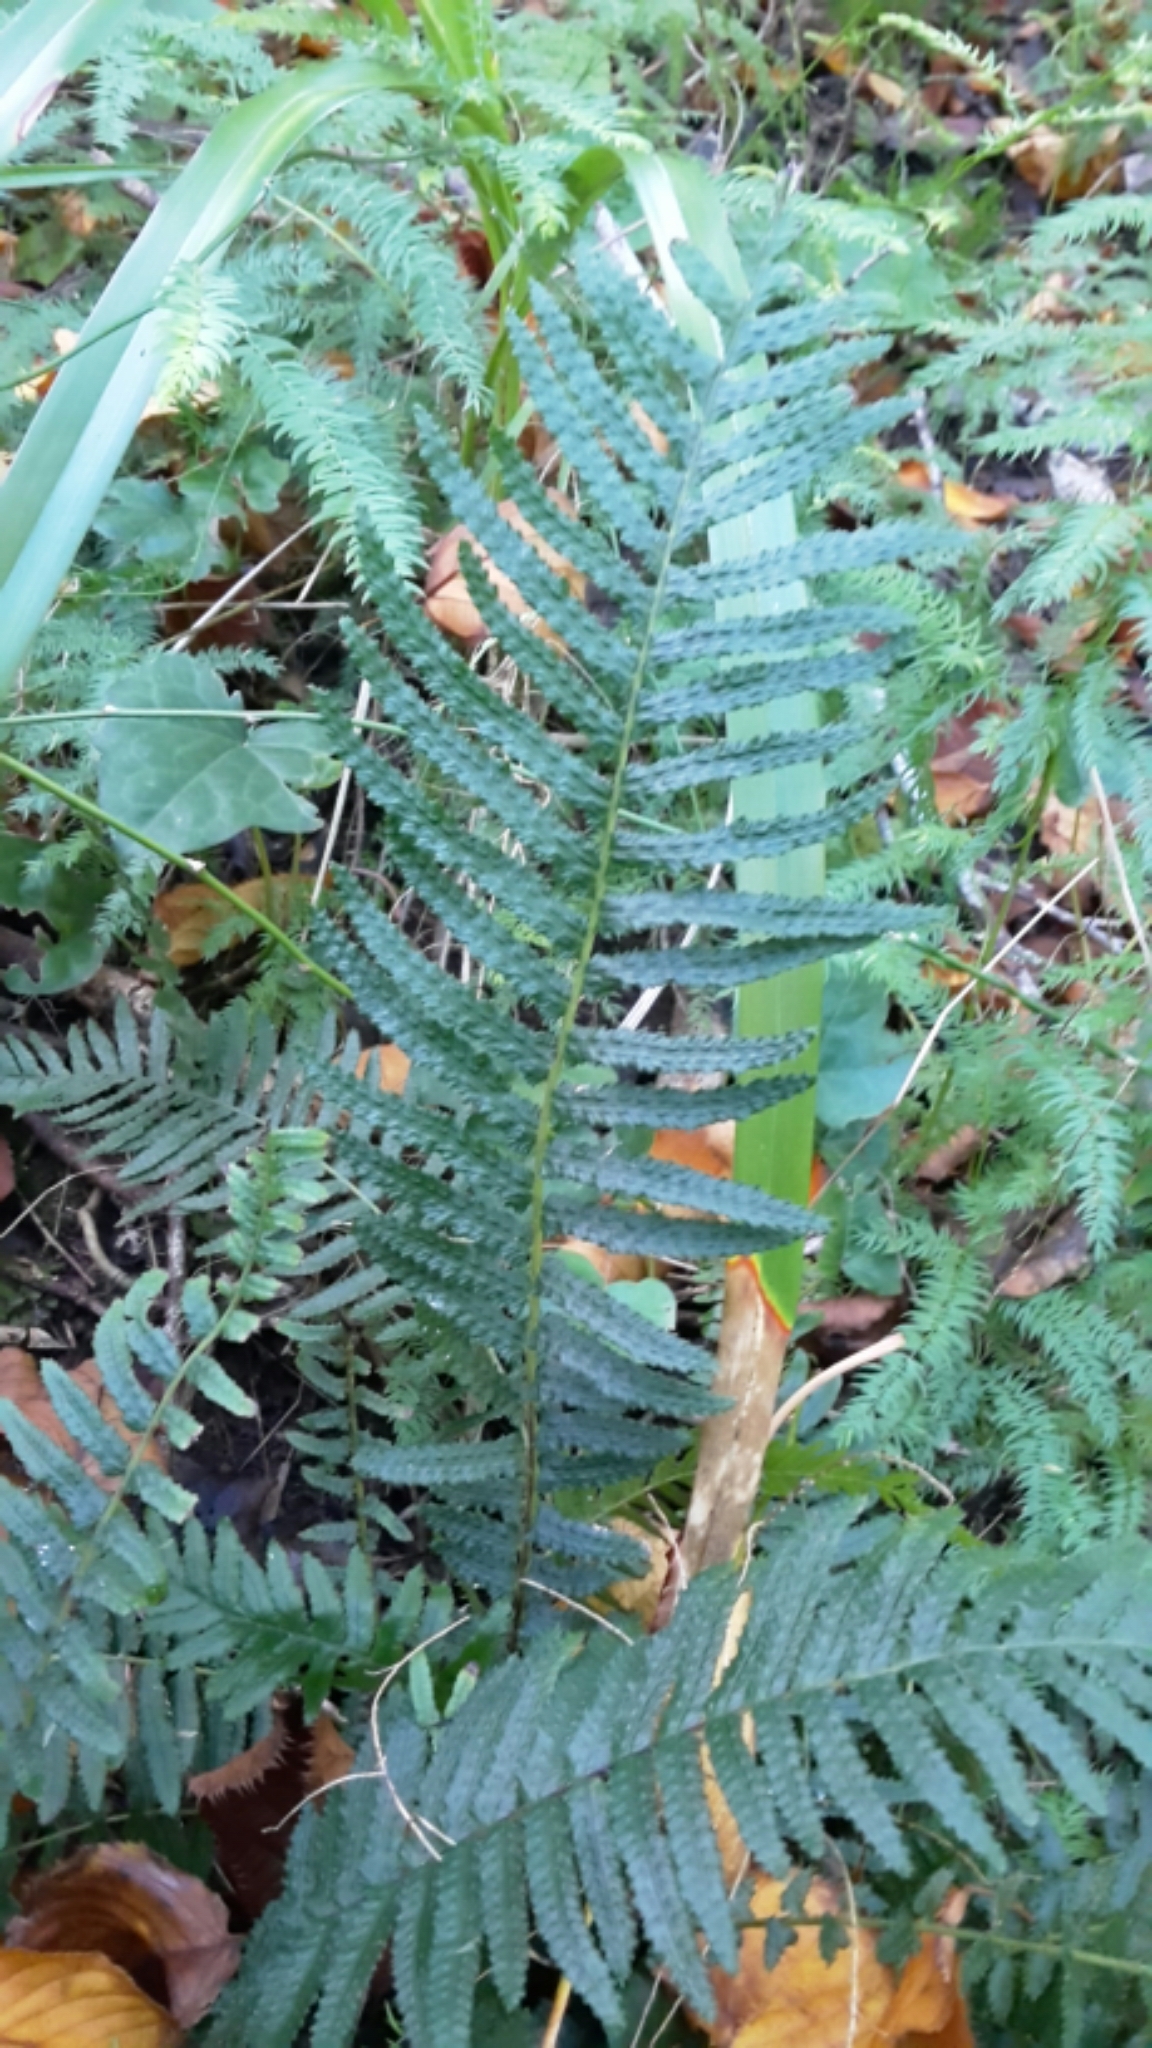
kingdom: Plantae
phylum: Tracheophyta
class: Polypodiopsida
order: Polypodiales
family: Blechnaceae
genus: Doodia
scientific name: Doodia australis
